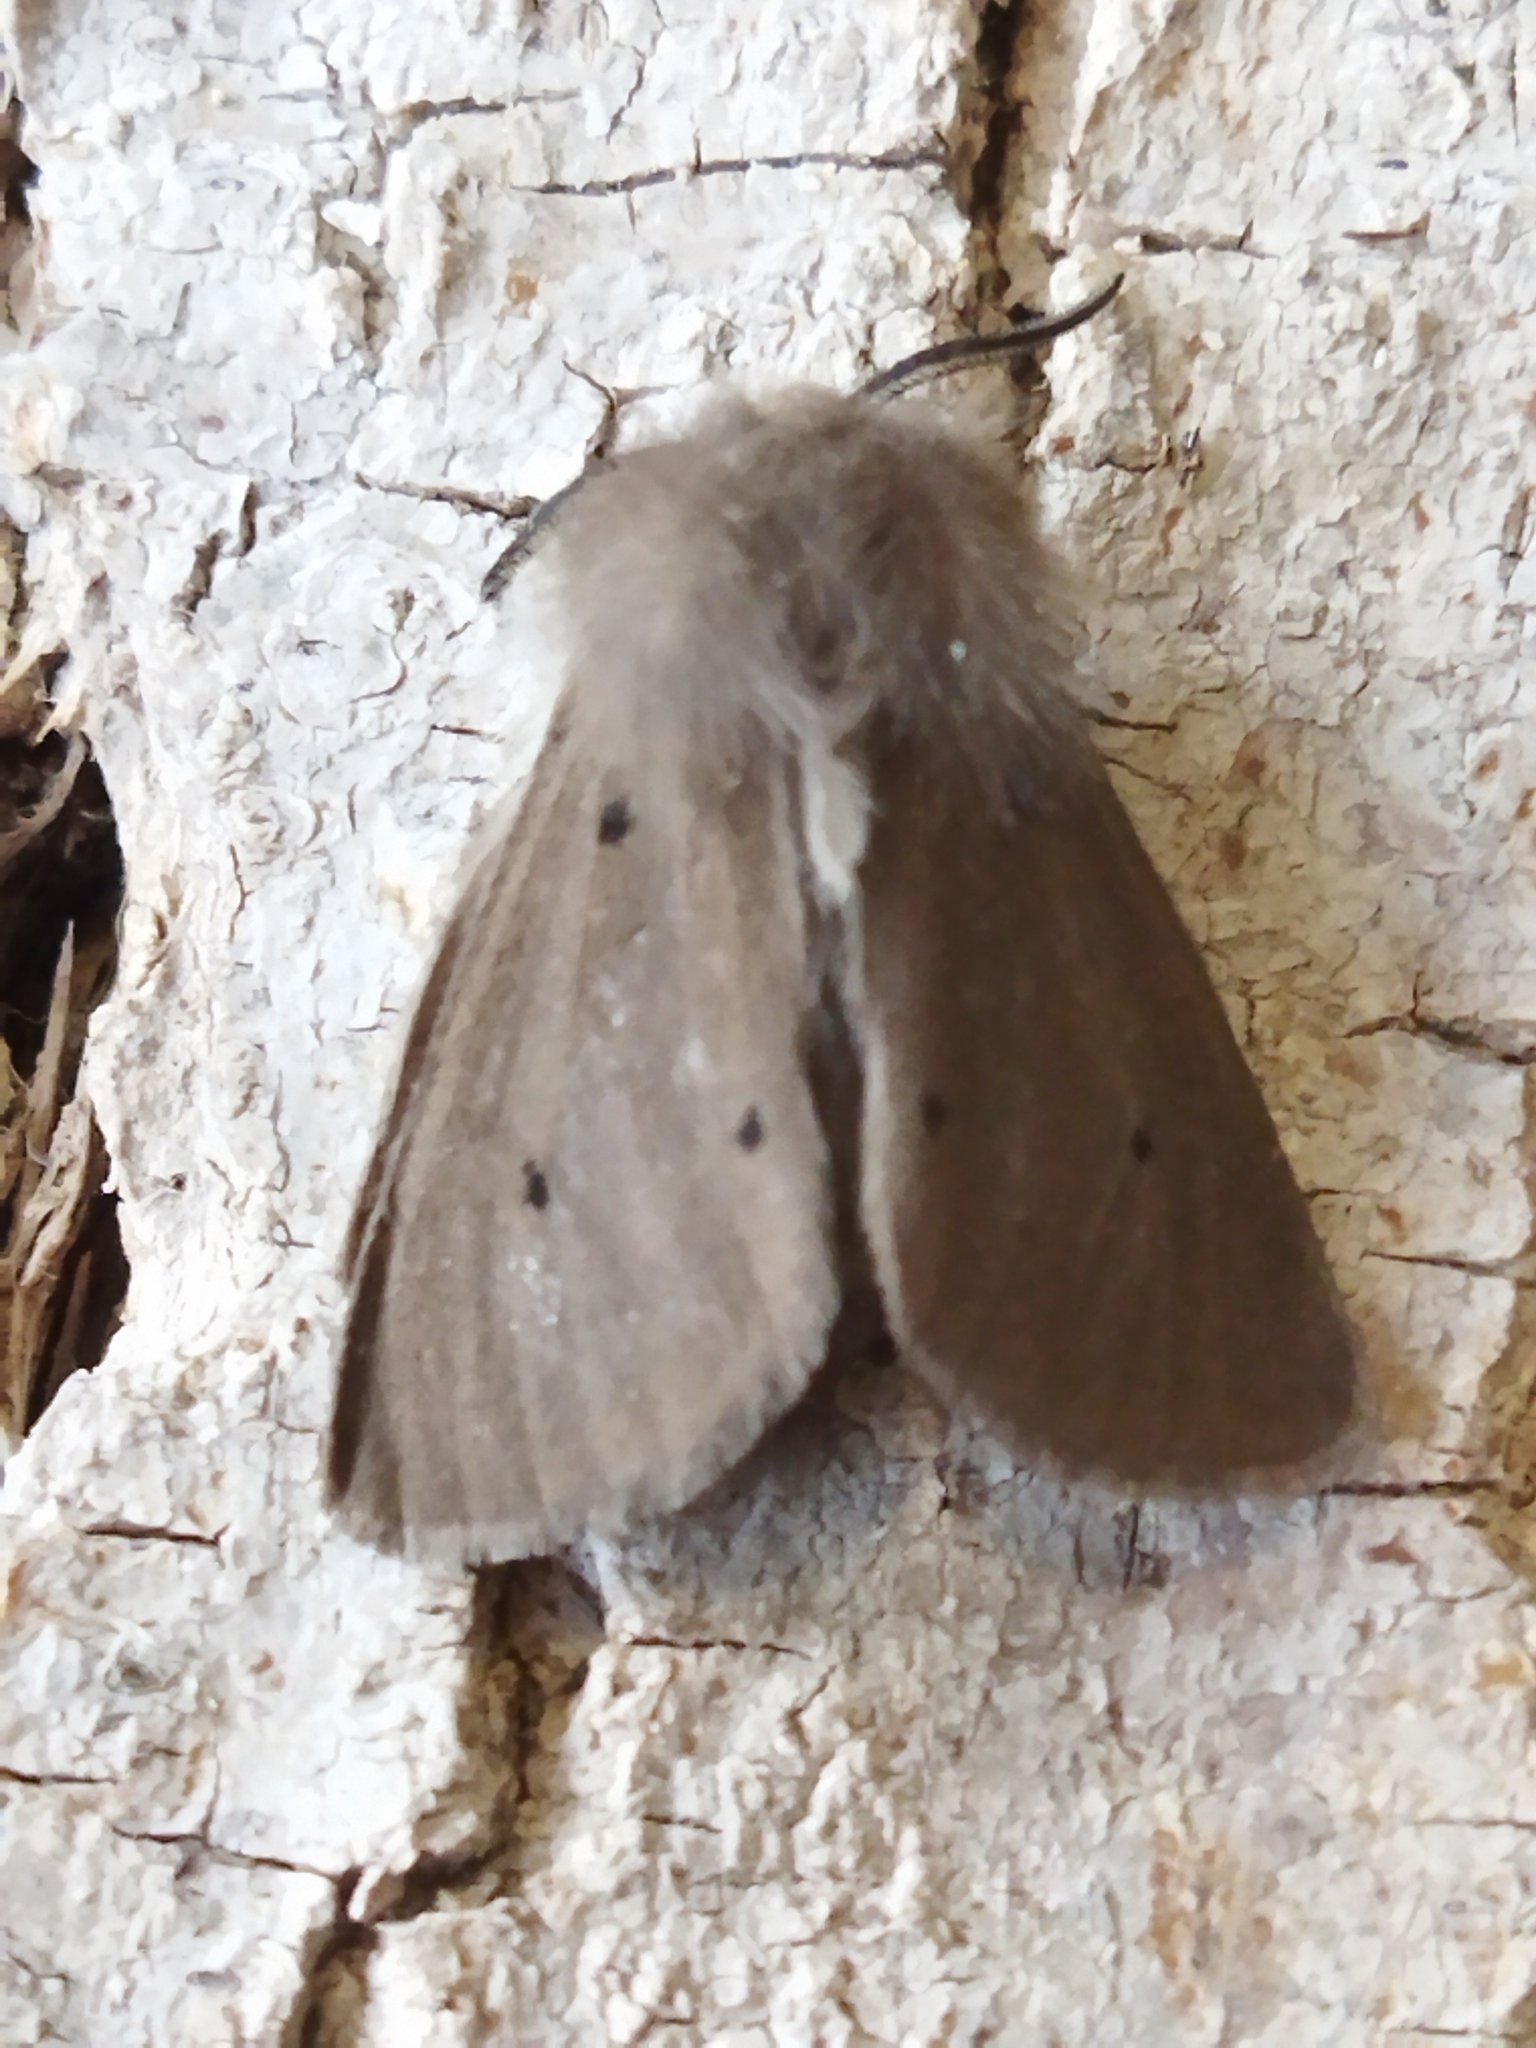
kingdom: Animalia
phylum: Arthropoda
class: Insecta
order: Lepidoptera
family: Erebidae
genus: Diaphora
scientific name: Diaphora mendica
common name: Muslin moth
